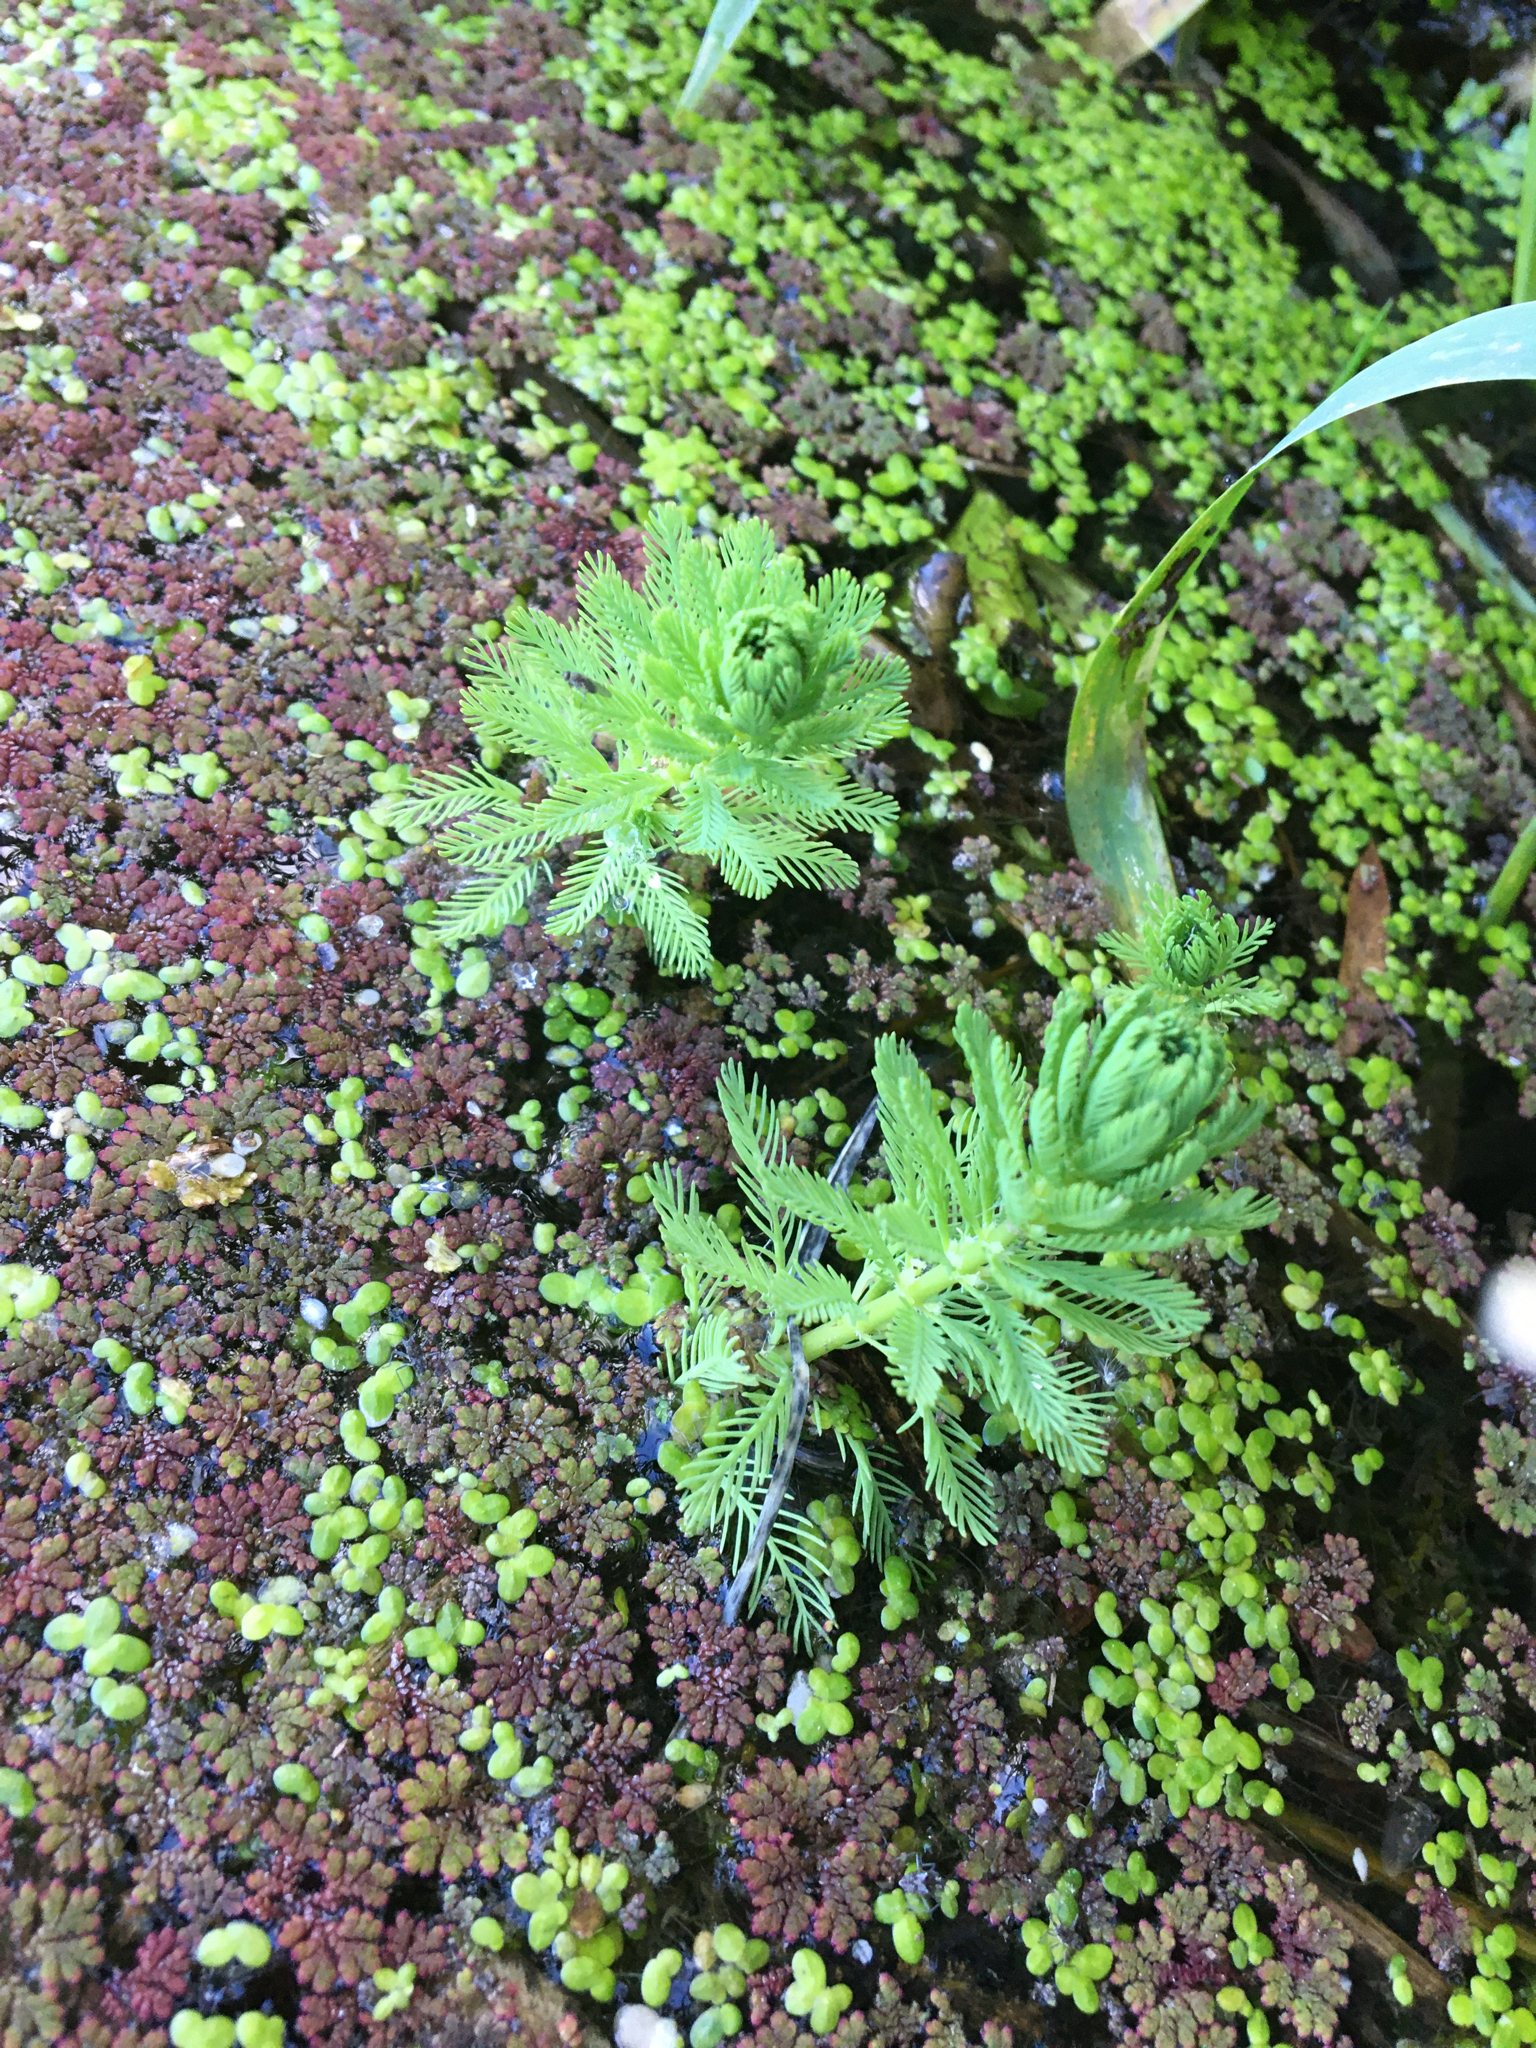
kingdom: Plantae
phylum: Tracheophyta
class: Magnoliopsida
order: Saxifragales
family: Haloragaceae
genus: Myriophyllum
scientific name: Myriophyllum aquaticum
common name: Parrot's feather
